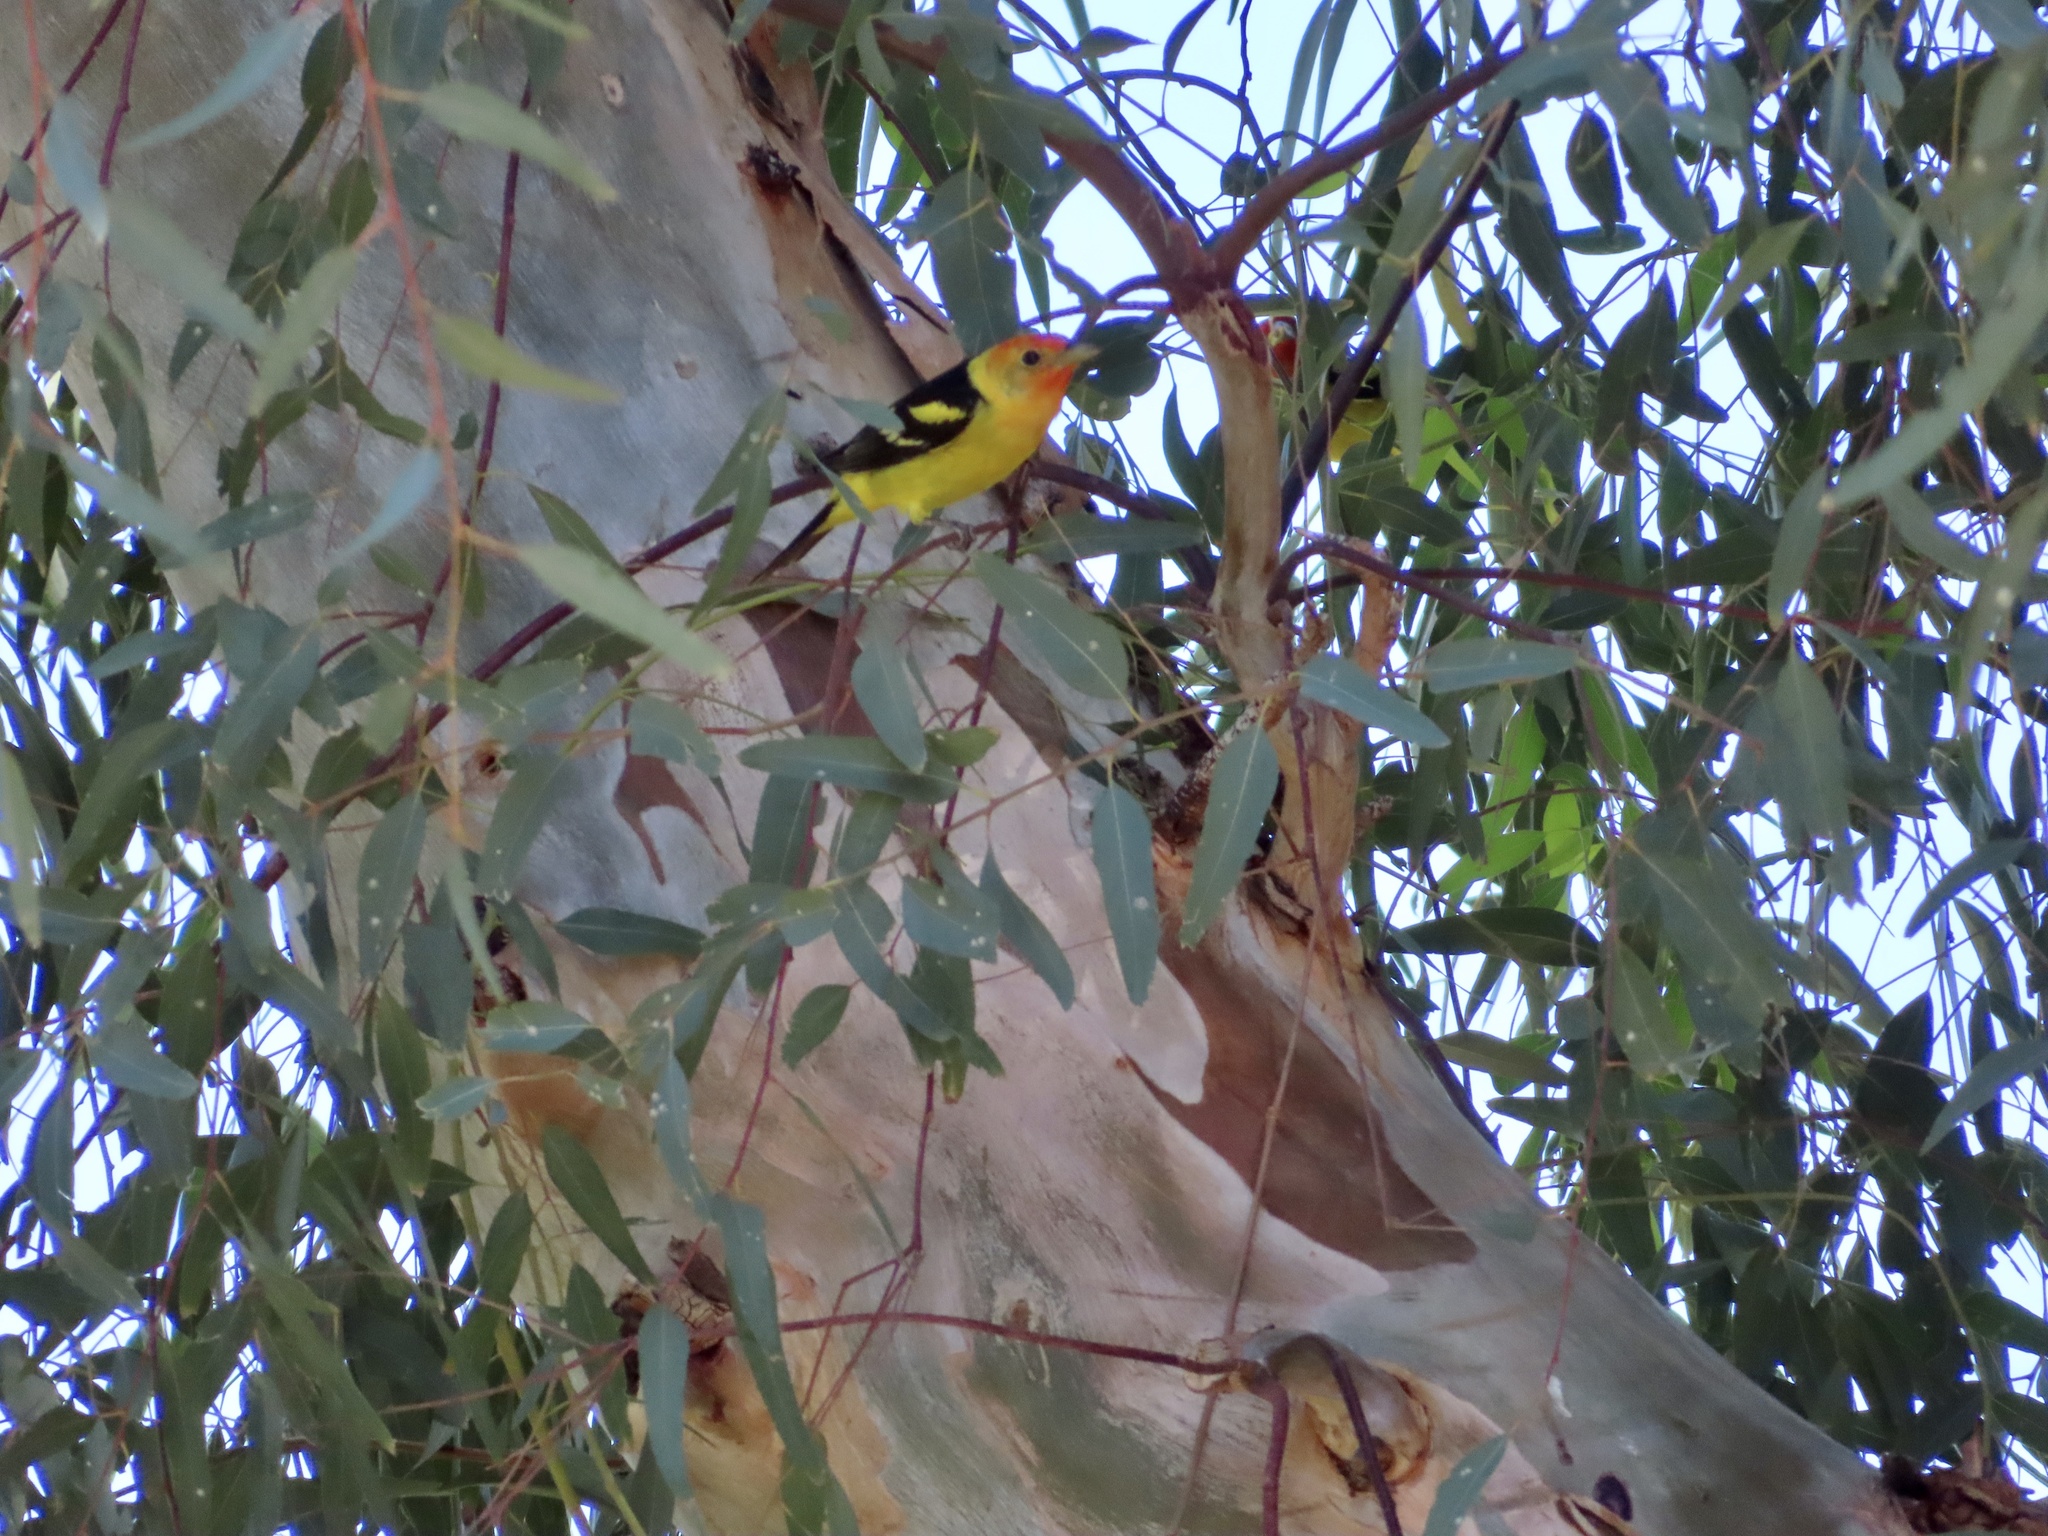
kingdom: Animalia
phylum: Chordata
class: Aves
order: Passeriformes
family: Cardinalidae
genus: Piranga
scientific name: Piranga ludoviciana
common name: Western tanager
